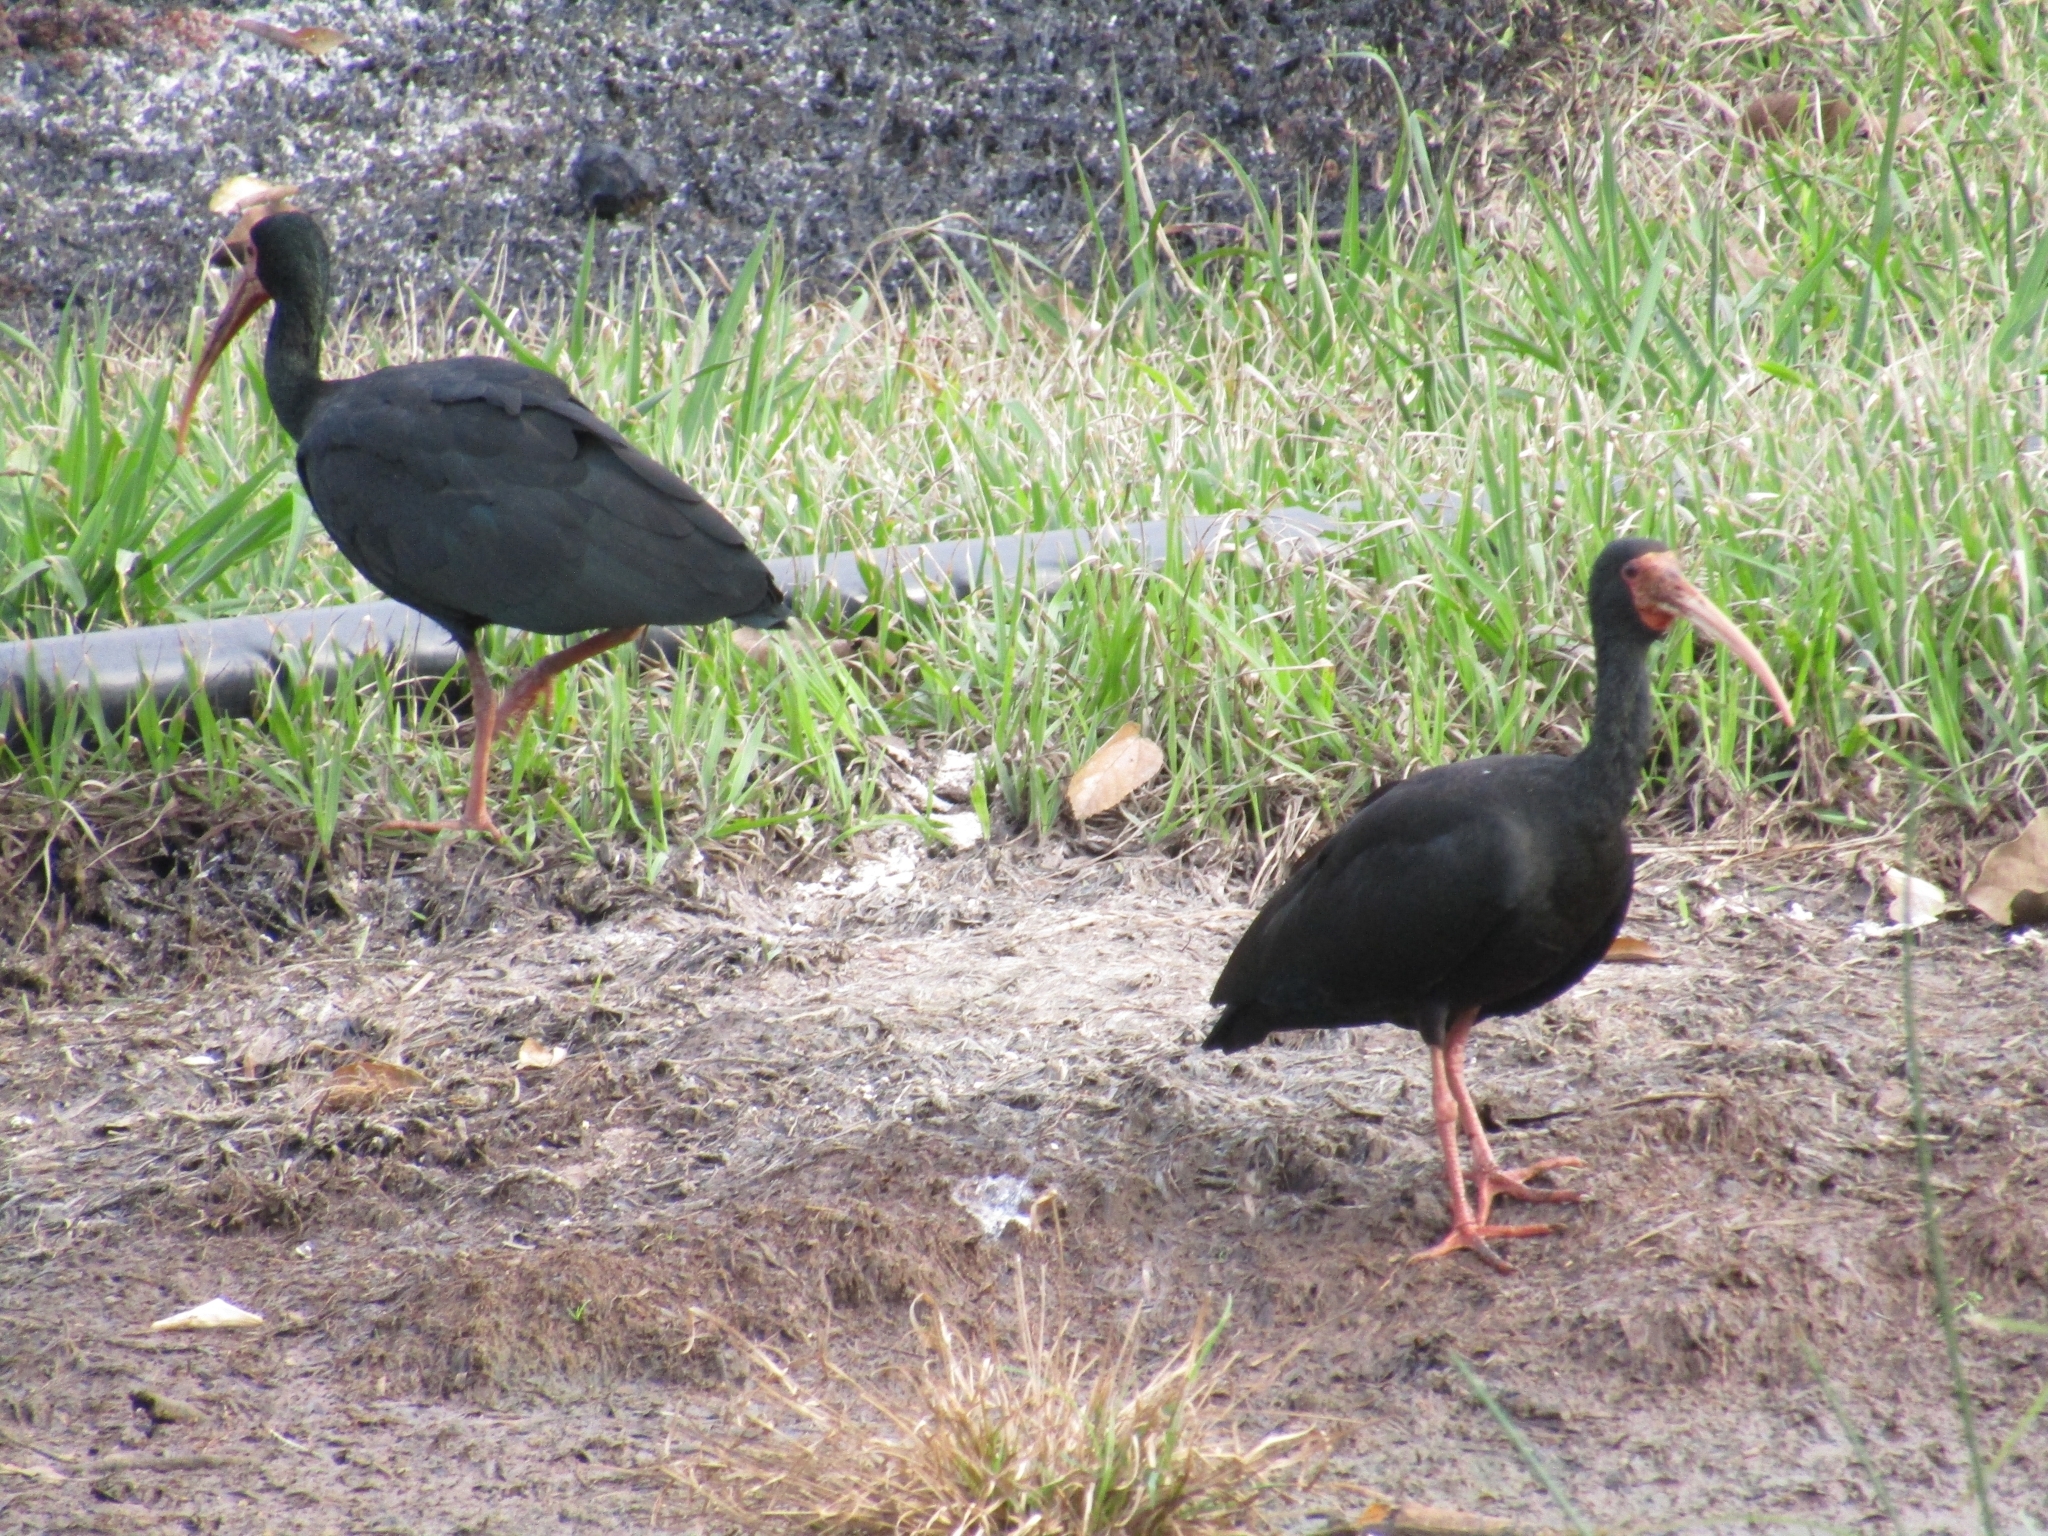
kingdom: Animalia
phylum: Chordata
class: Aves
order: Pelecaniformes
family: Threskiornithidae
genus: Phimosus
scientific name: Phimosus infuscatus
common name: Bare-faced ibis
